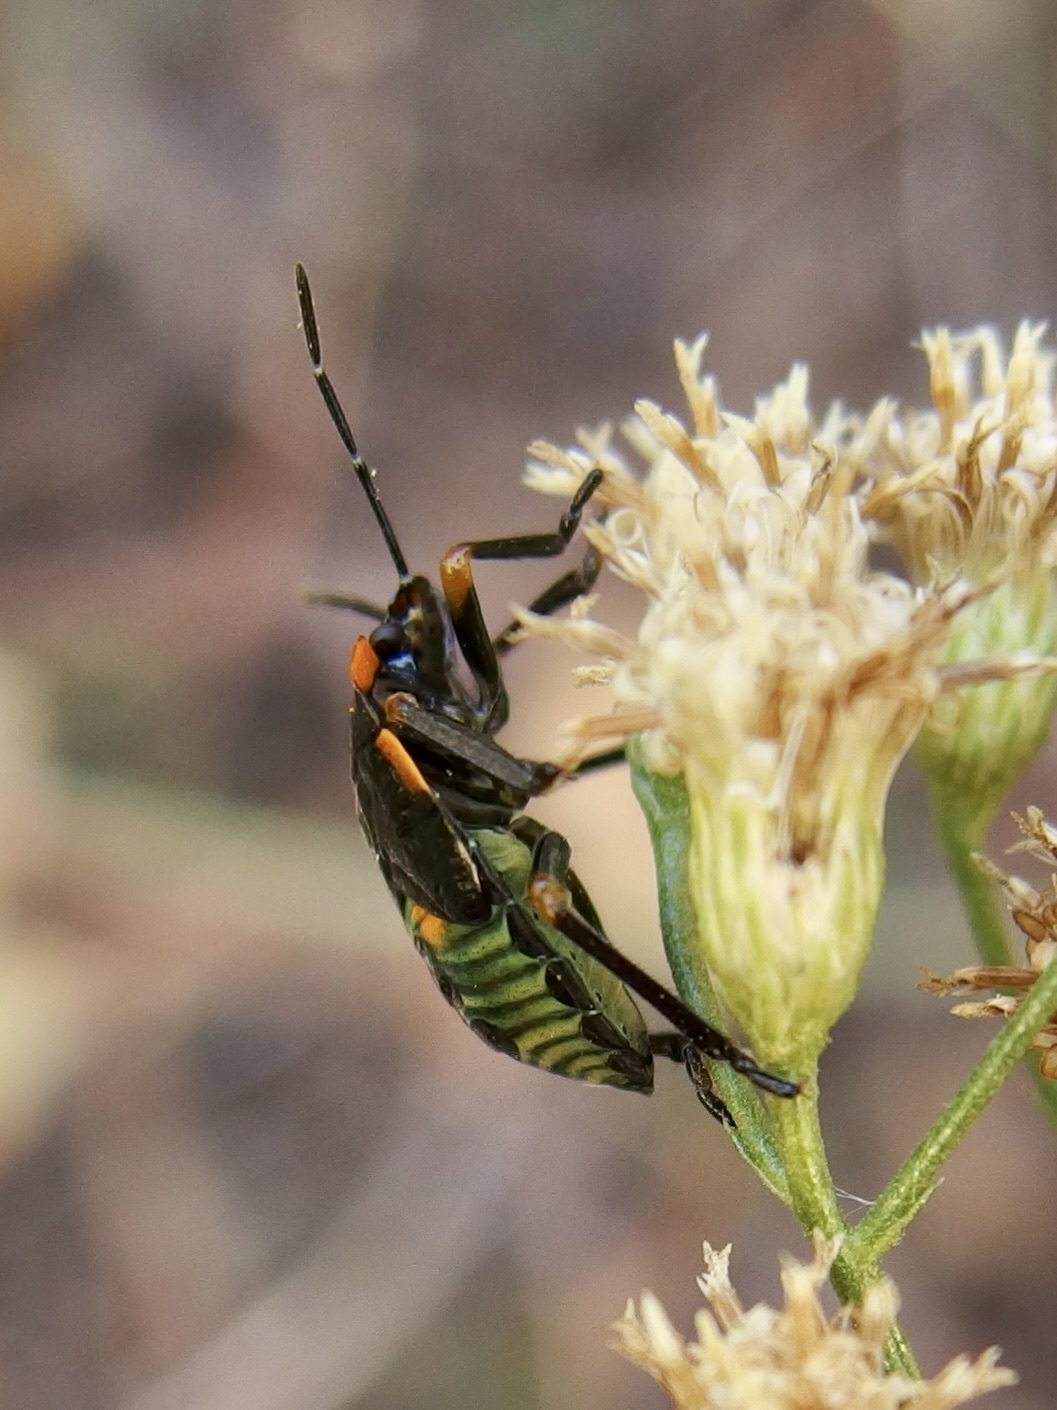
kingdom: Animalia
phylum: Arthropoda
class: Insecta
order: Hemiptera
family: Pentatomidae
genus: Chinavia
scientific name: Chinavia hilaris
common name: Green stink bug
